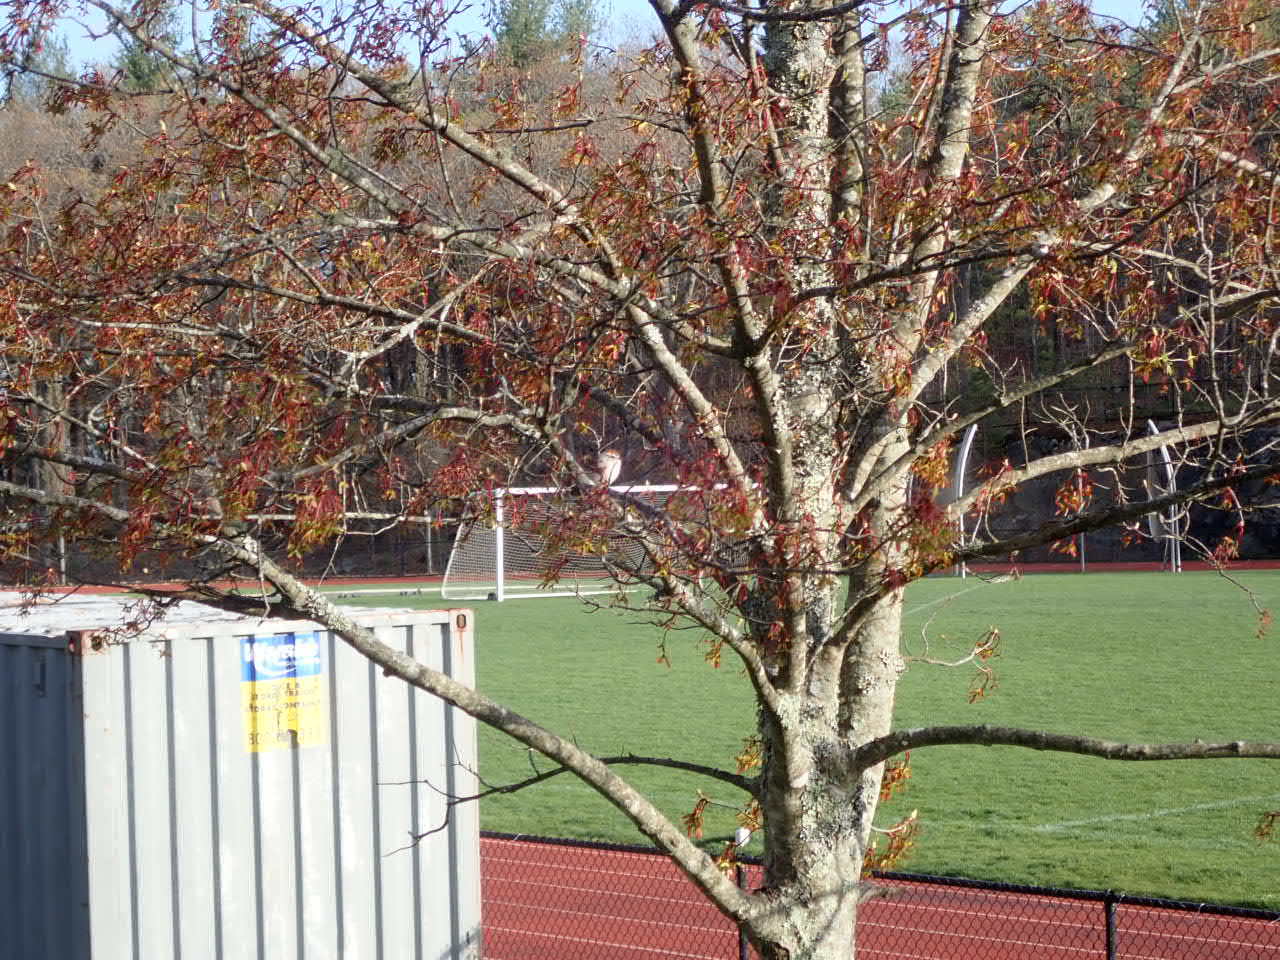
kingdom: Animalia
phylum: Chordata
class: Aves
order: Passeriformes
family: Passerellidae
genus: Spizella
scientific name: Spizella passerina
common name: Chipping sparrow
